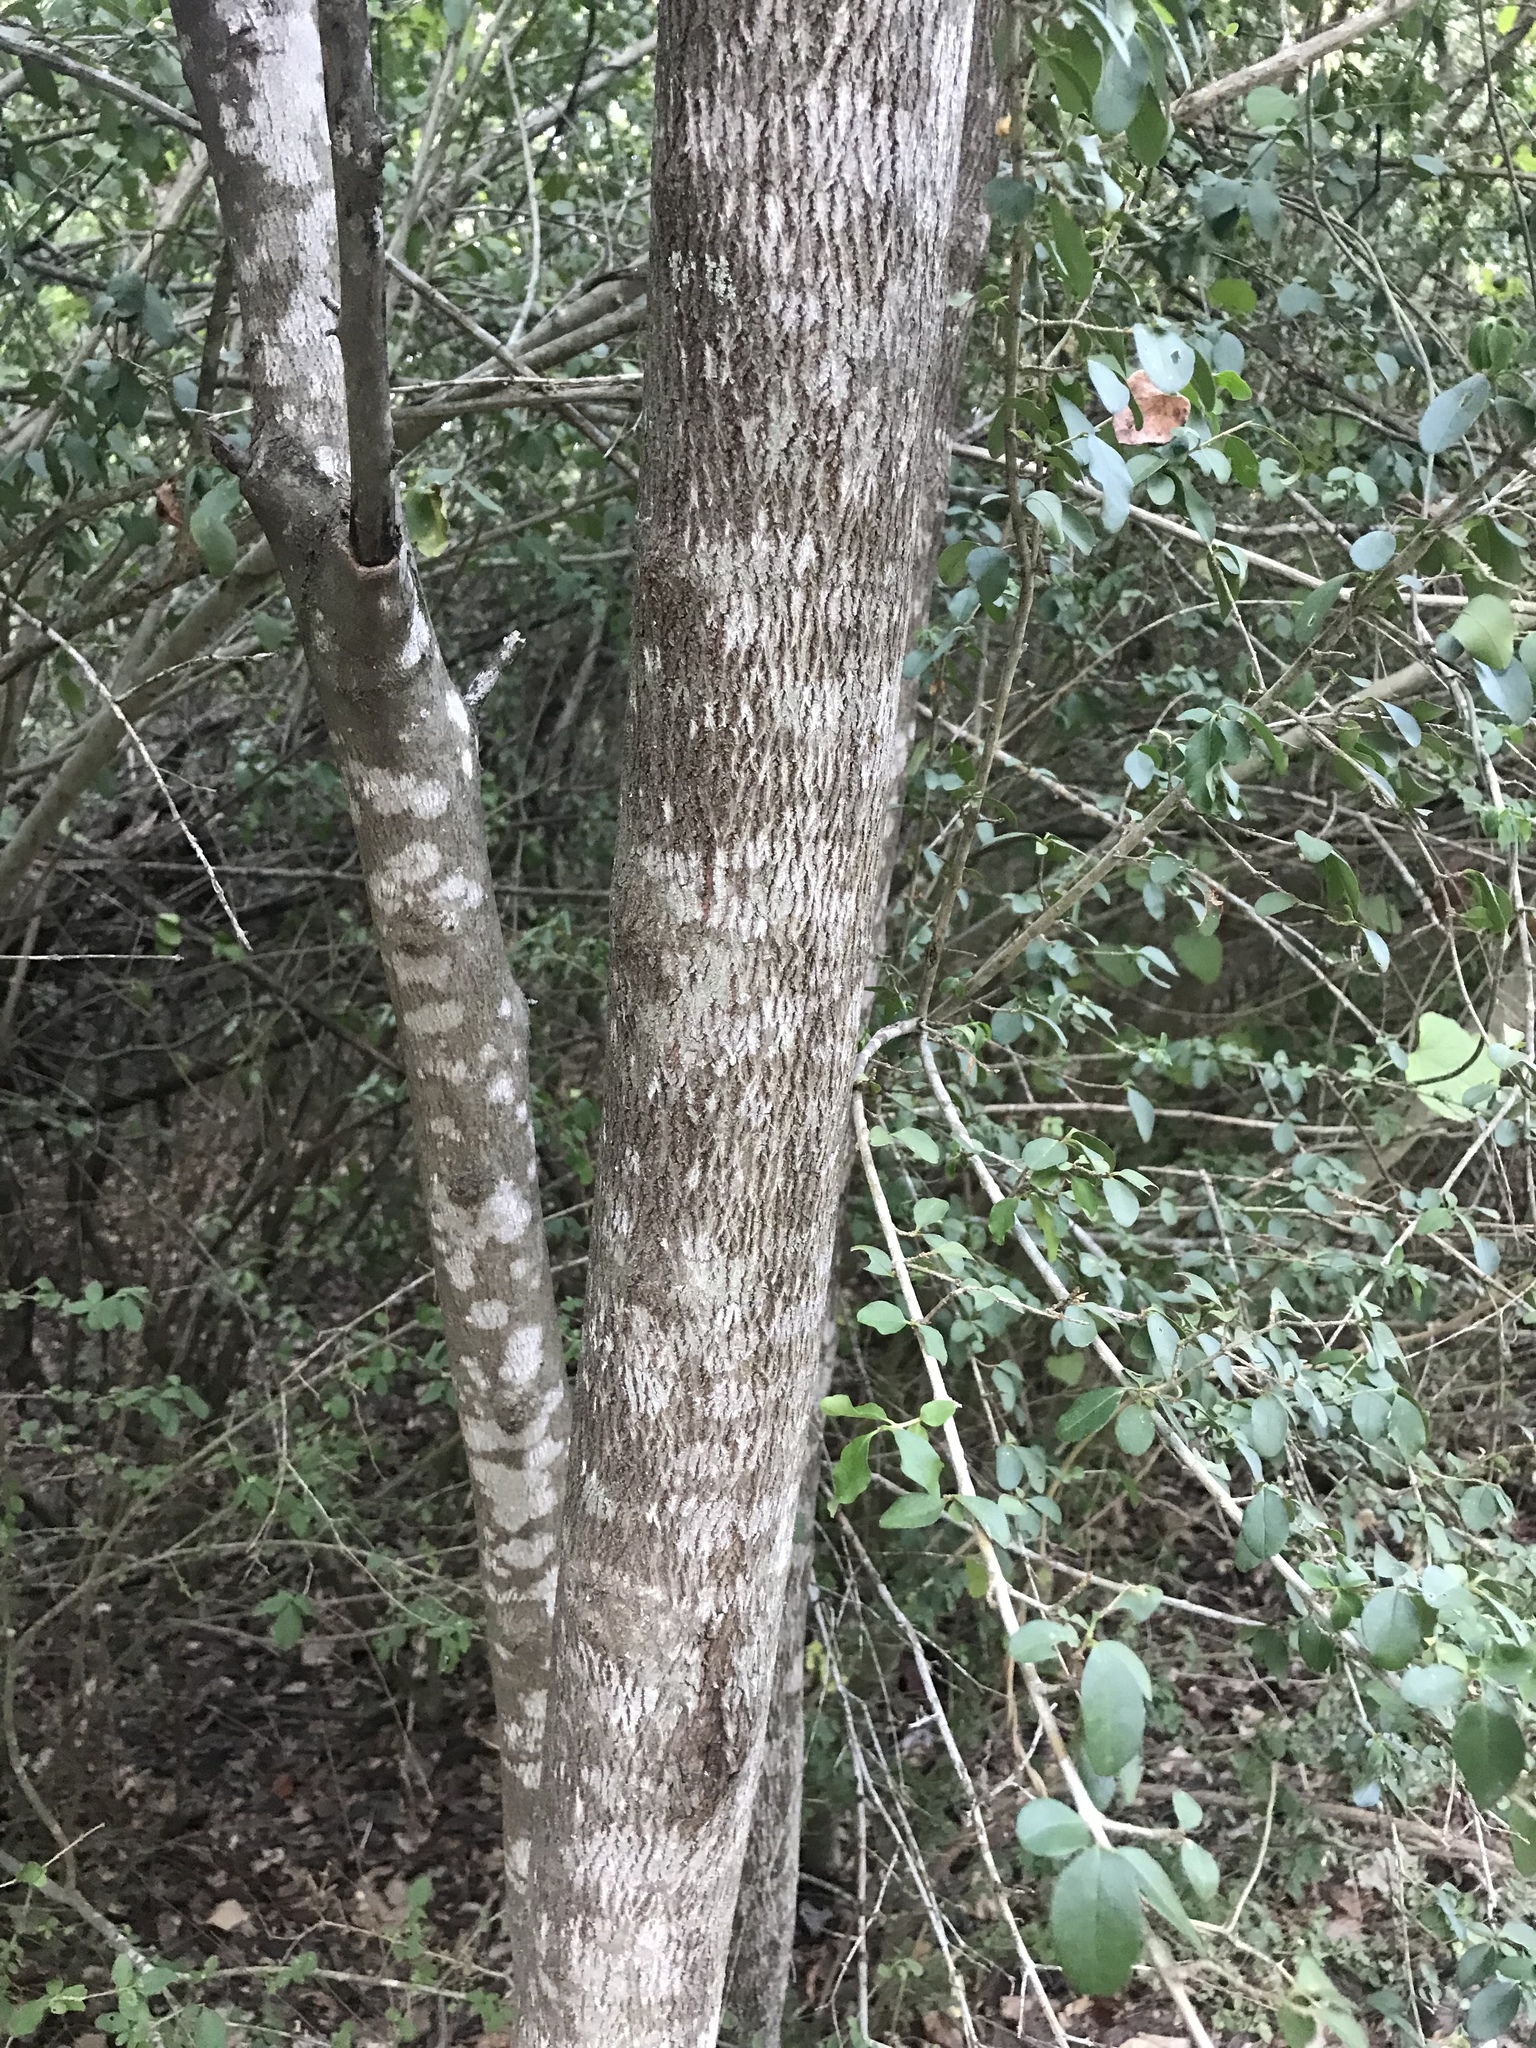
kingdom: Plantae
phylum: Tracheophyta
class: Magnoliopsida
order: Fabales
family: Fabaceae
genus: Cercis
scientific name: Cercis canadensis
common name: Eastern redbud
